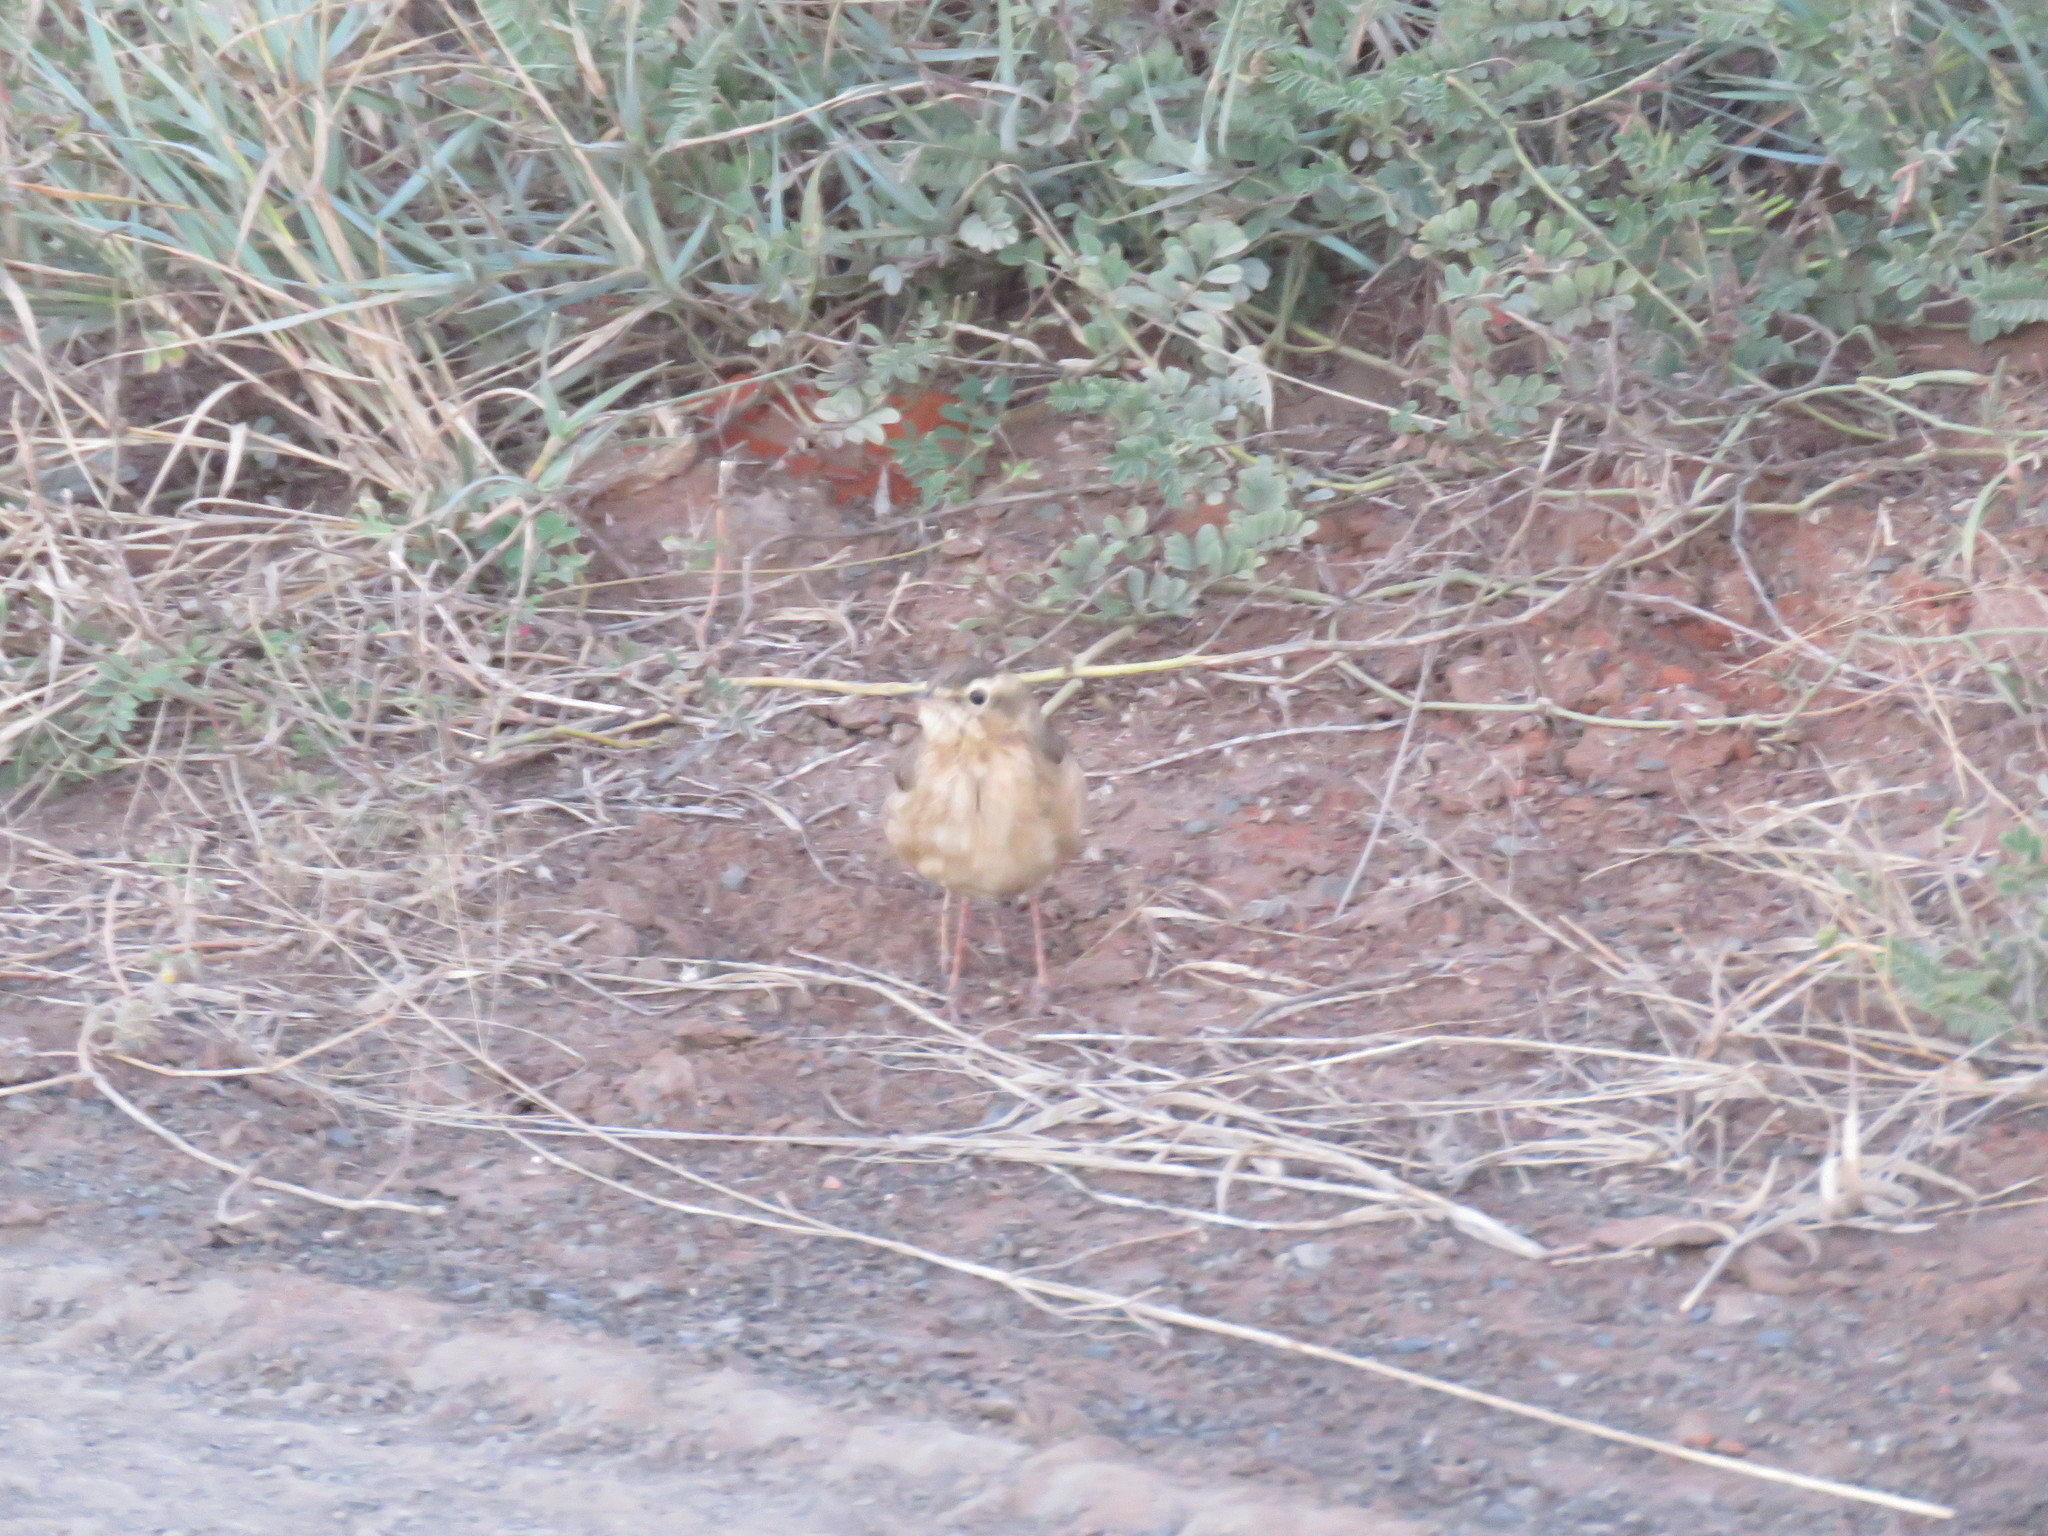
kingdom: Animalia
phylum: Chordata
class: Aves
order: Passeriformes
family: Motacillidae
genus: Anthus
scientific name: Anthus vaalensis
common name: Buffy pipit
